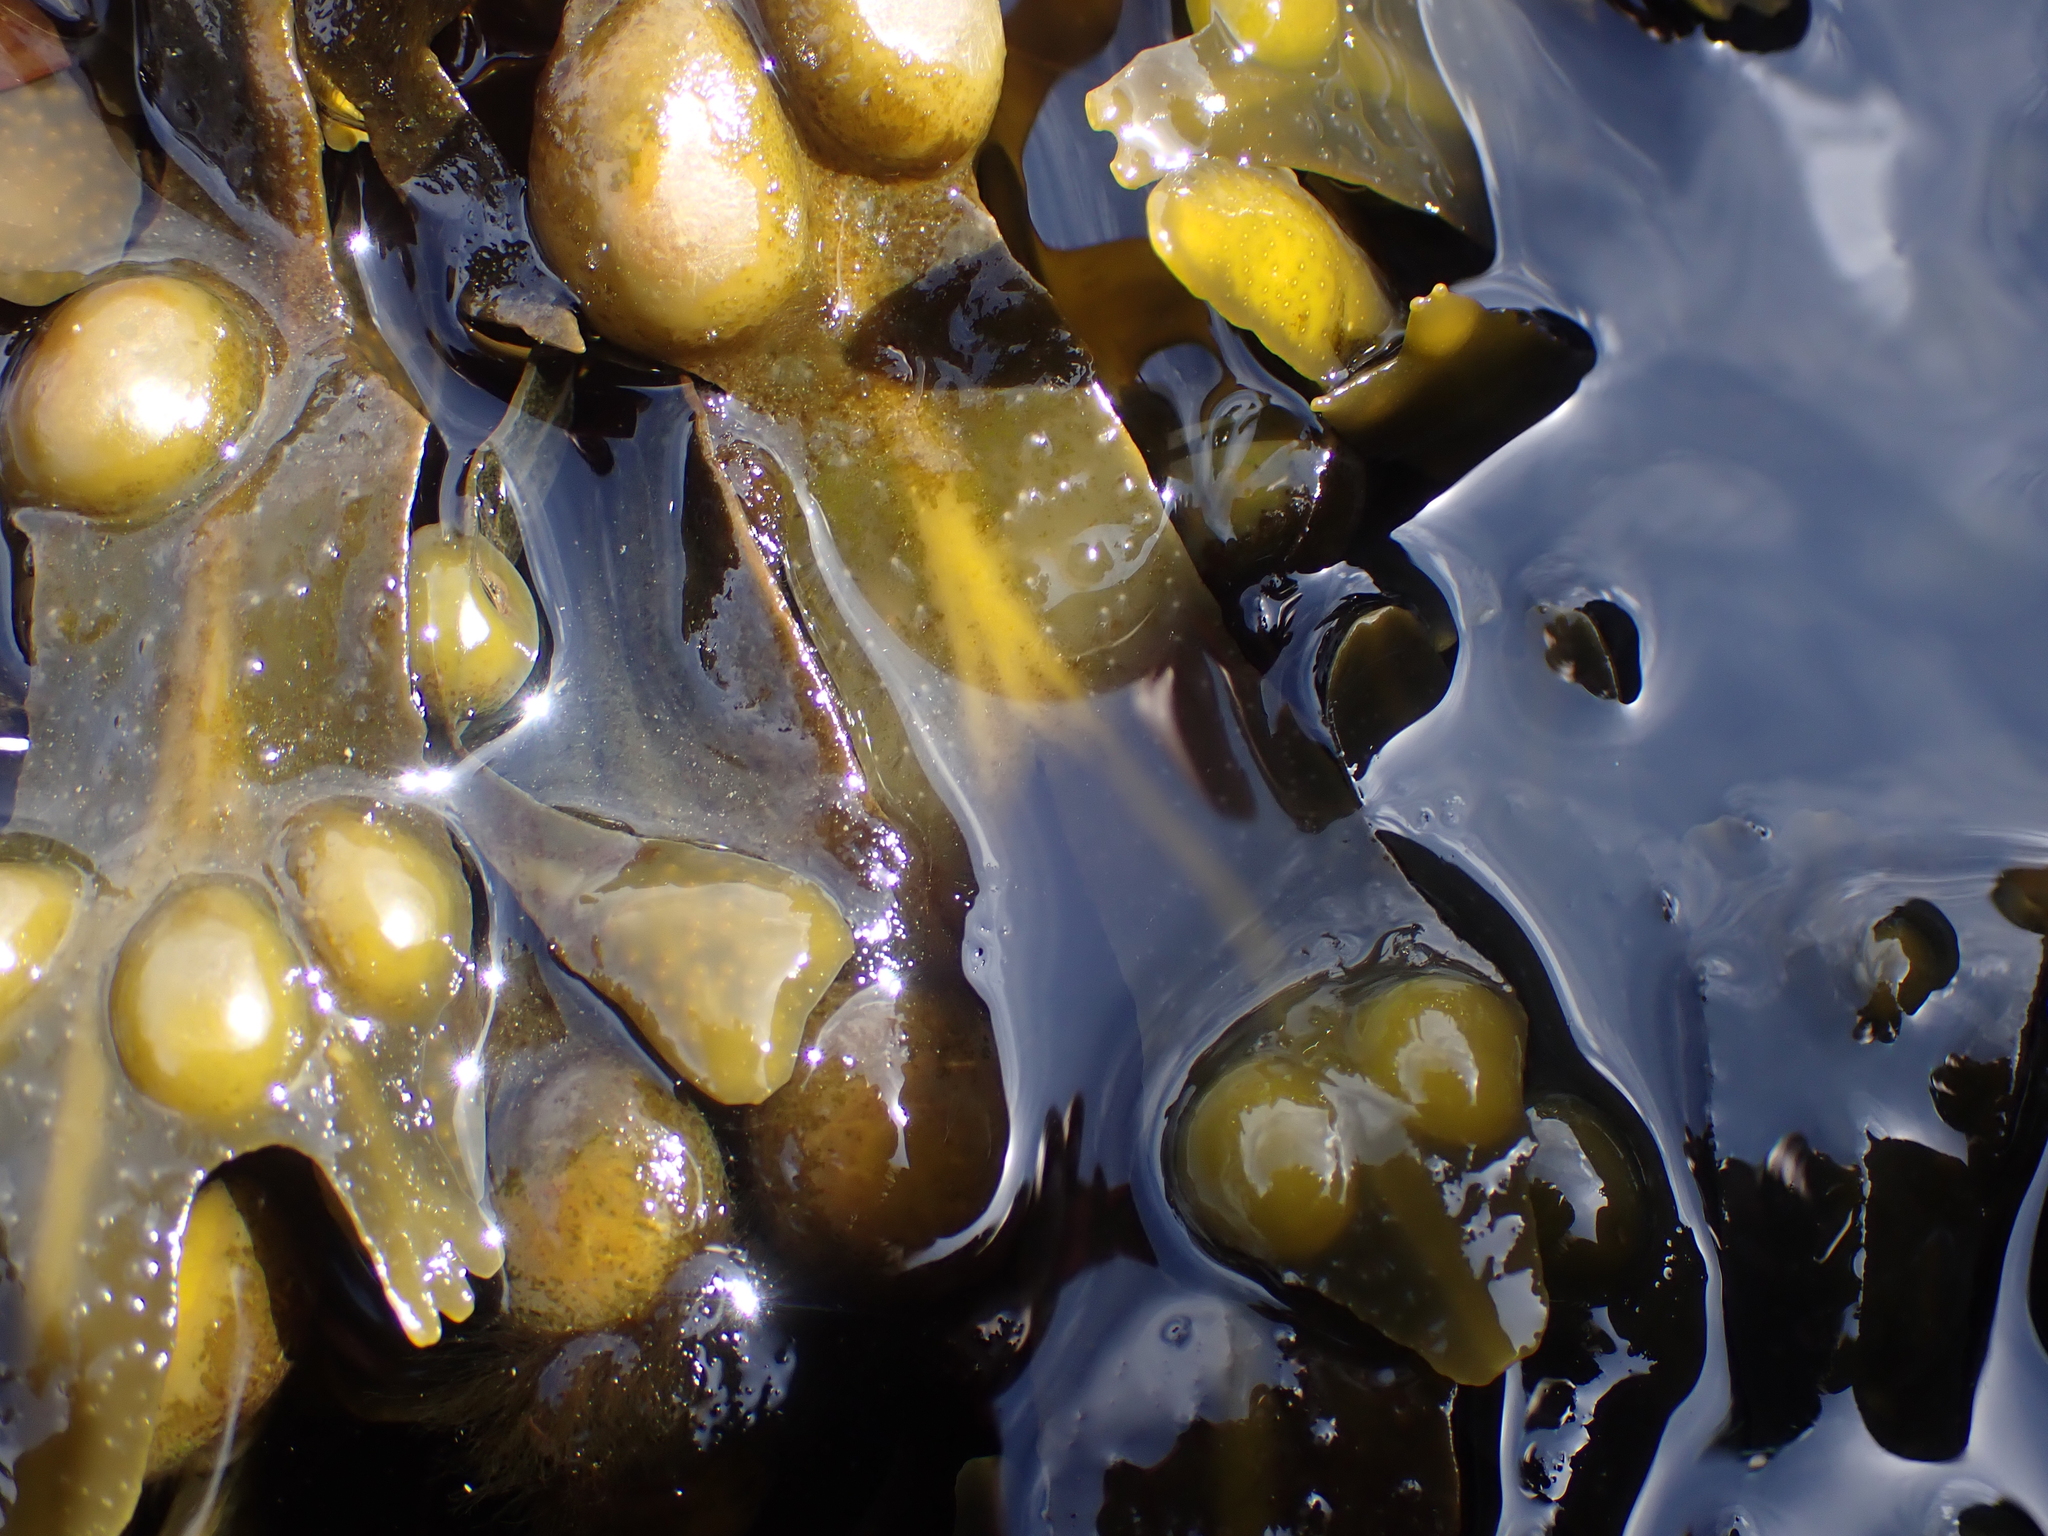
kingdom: Chromista
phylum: Ochrophyta
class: Phaeophyceae
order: Fucales
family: Fucaceae
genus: Fucus
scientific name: Fucus vesiculosus
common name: Bladder wrack
